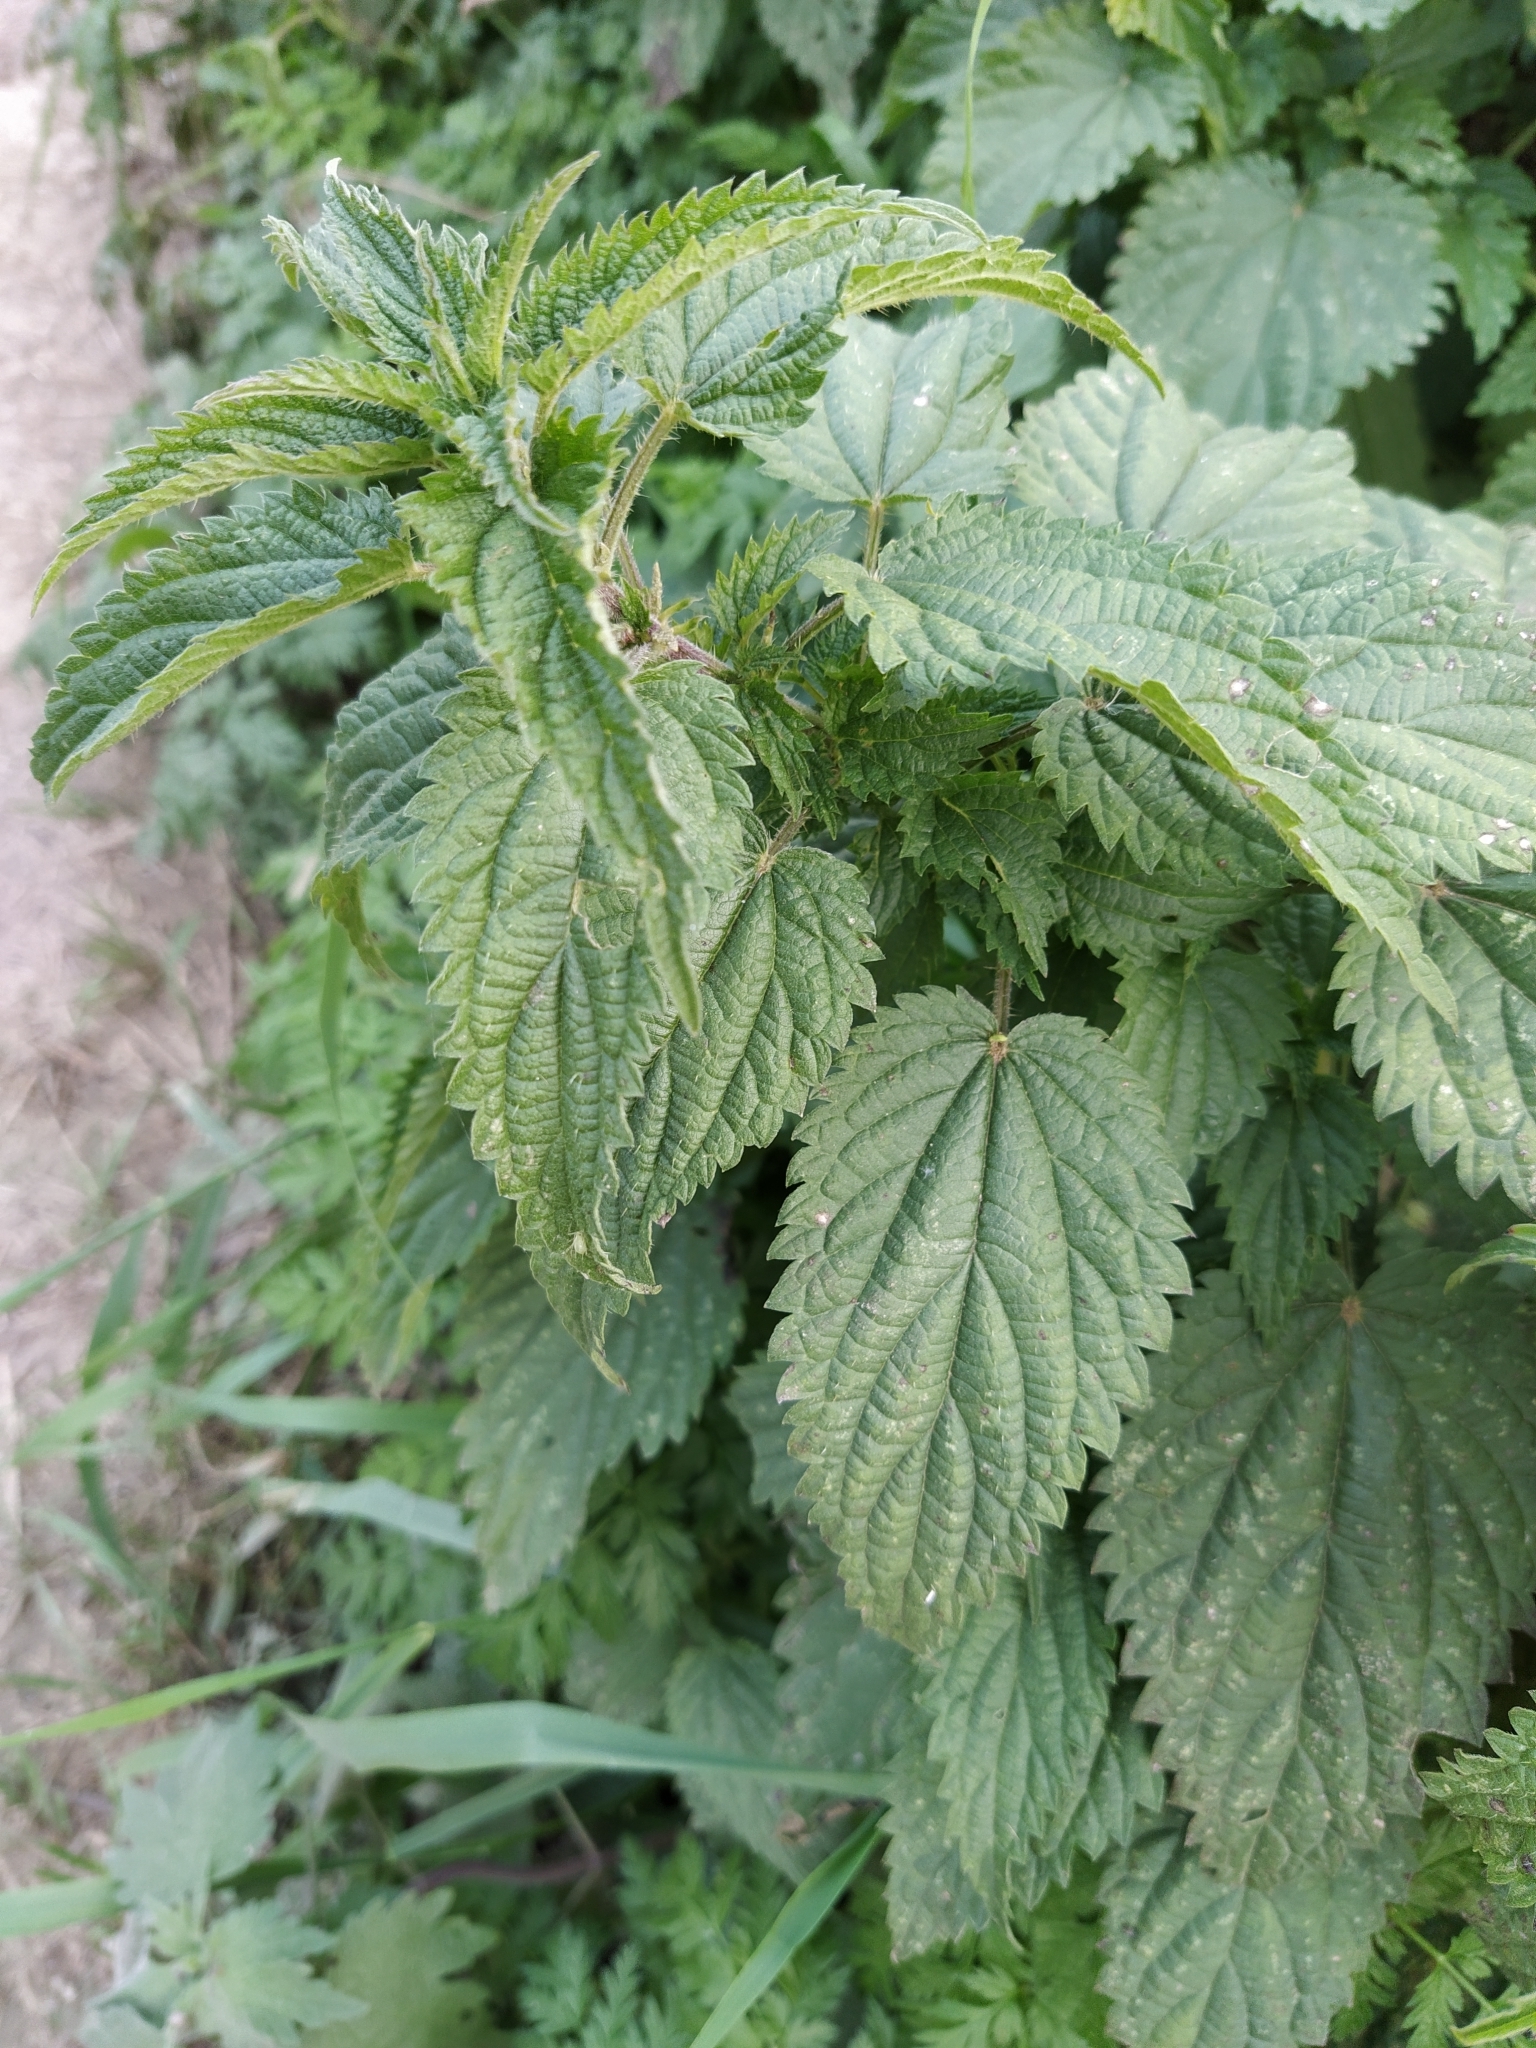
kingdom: Plantae
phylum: Tracheophyta
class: Magnoliopsida
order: Rosales
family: Urticaceae
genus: Urtica
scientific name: Urtica dioica
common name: Common nettle
